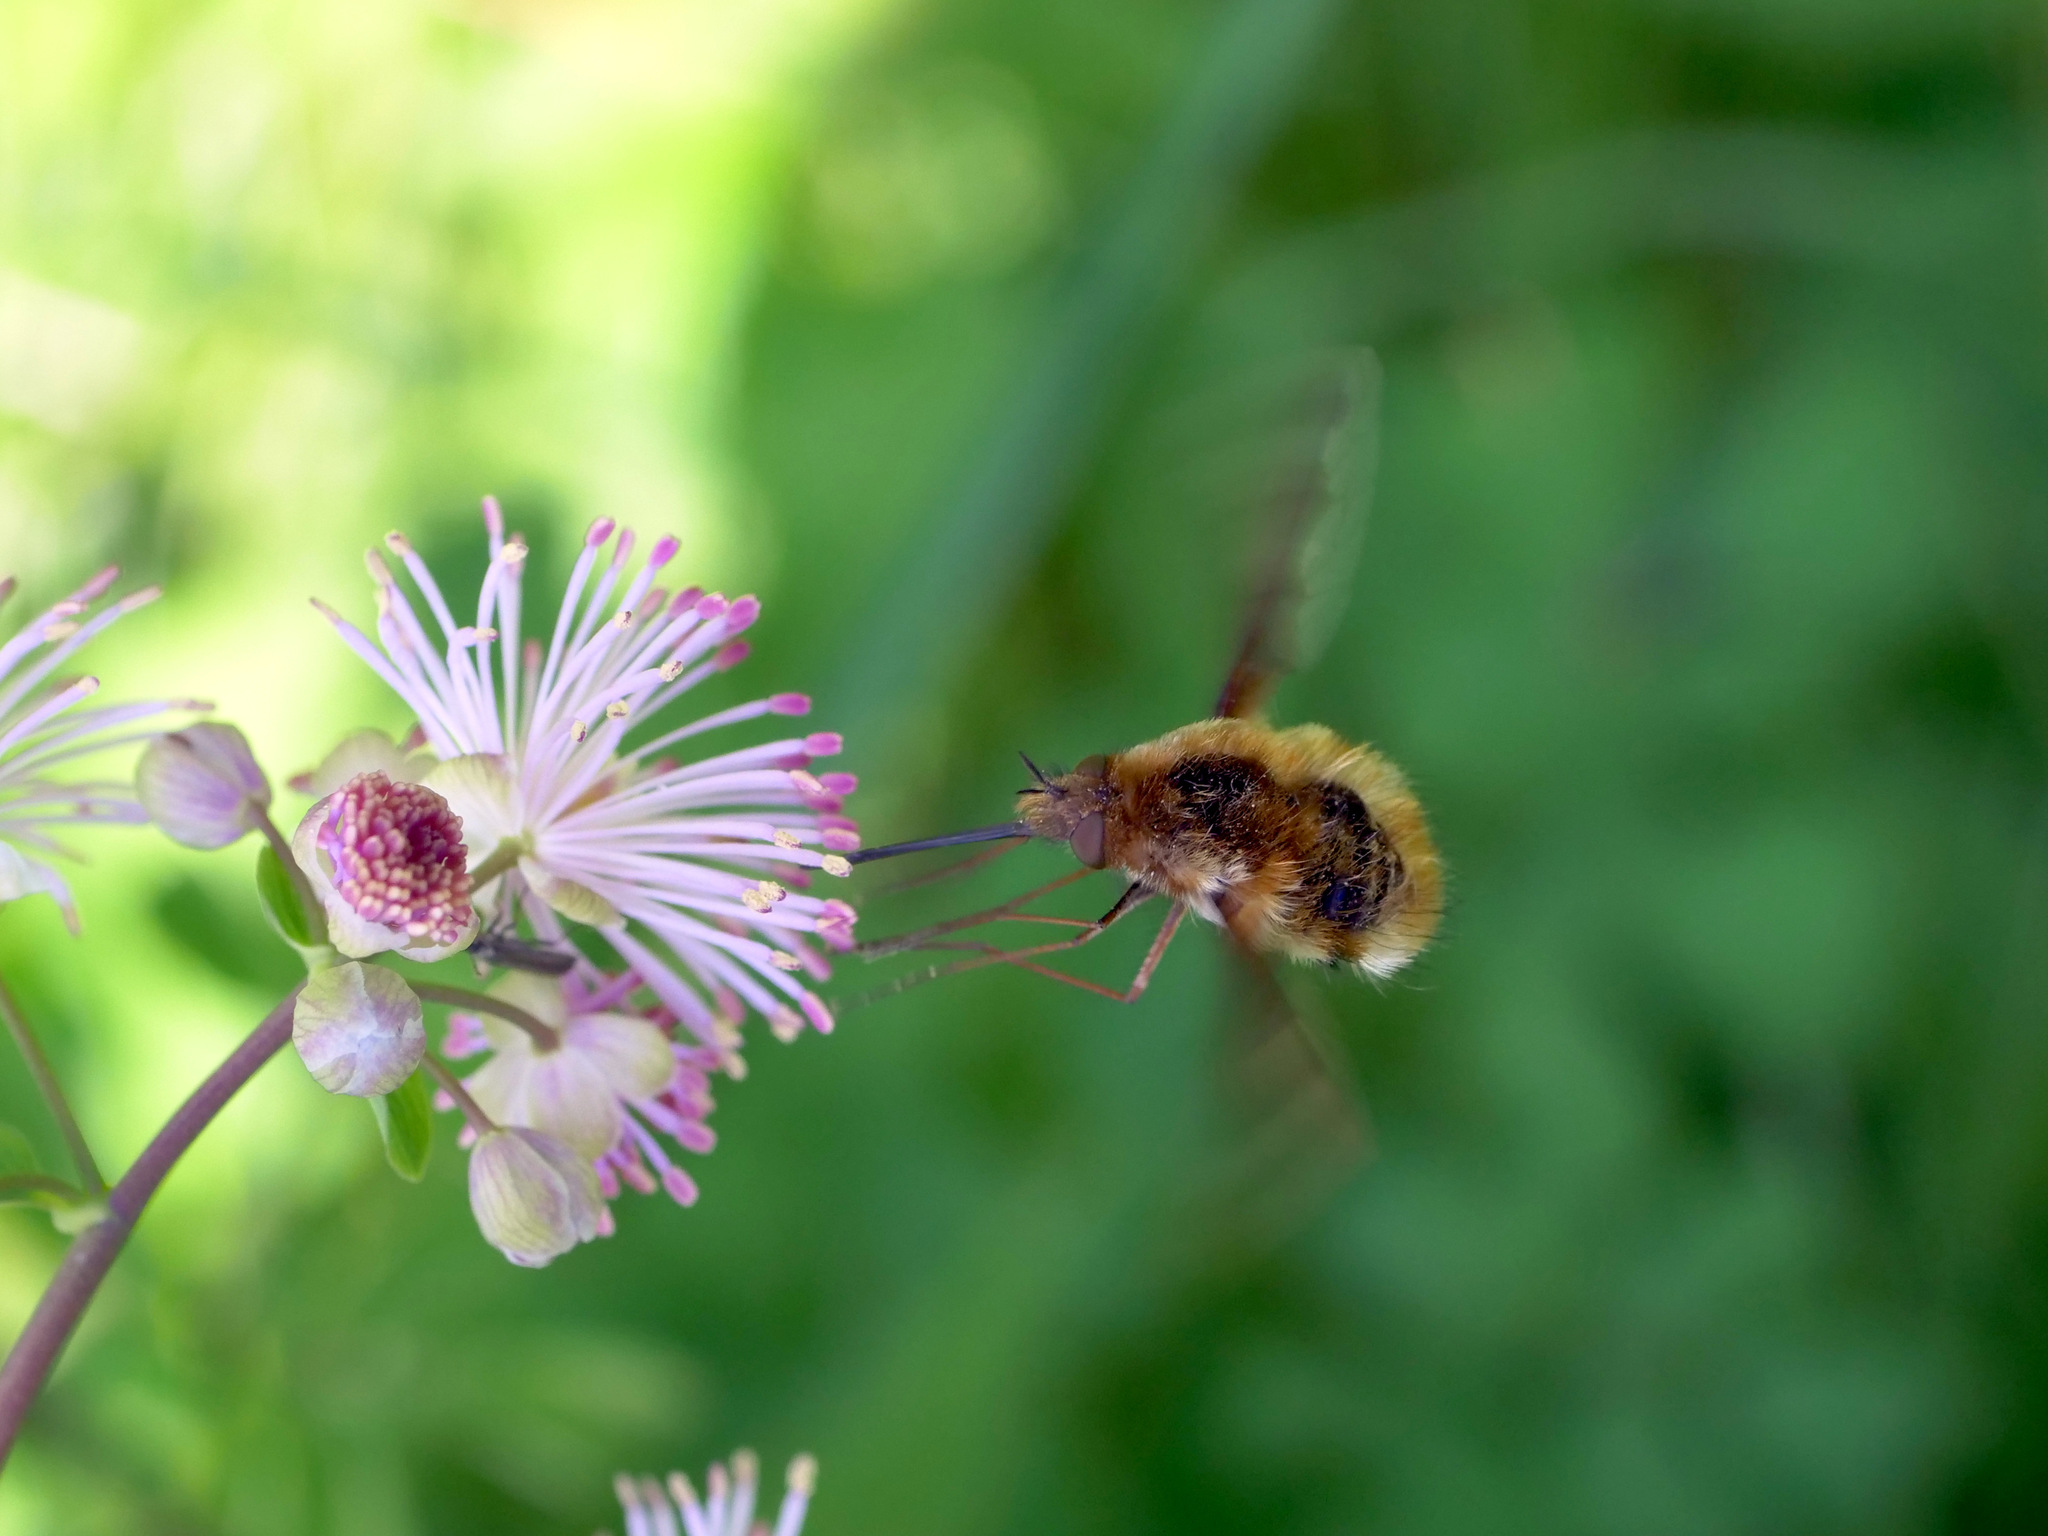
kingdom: Animalia
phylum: Arthropoda
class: Insecta
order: Diptera
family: Bombyliidae
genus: Bombylius
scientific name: Bombylius major
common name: Bee fly
